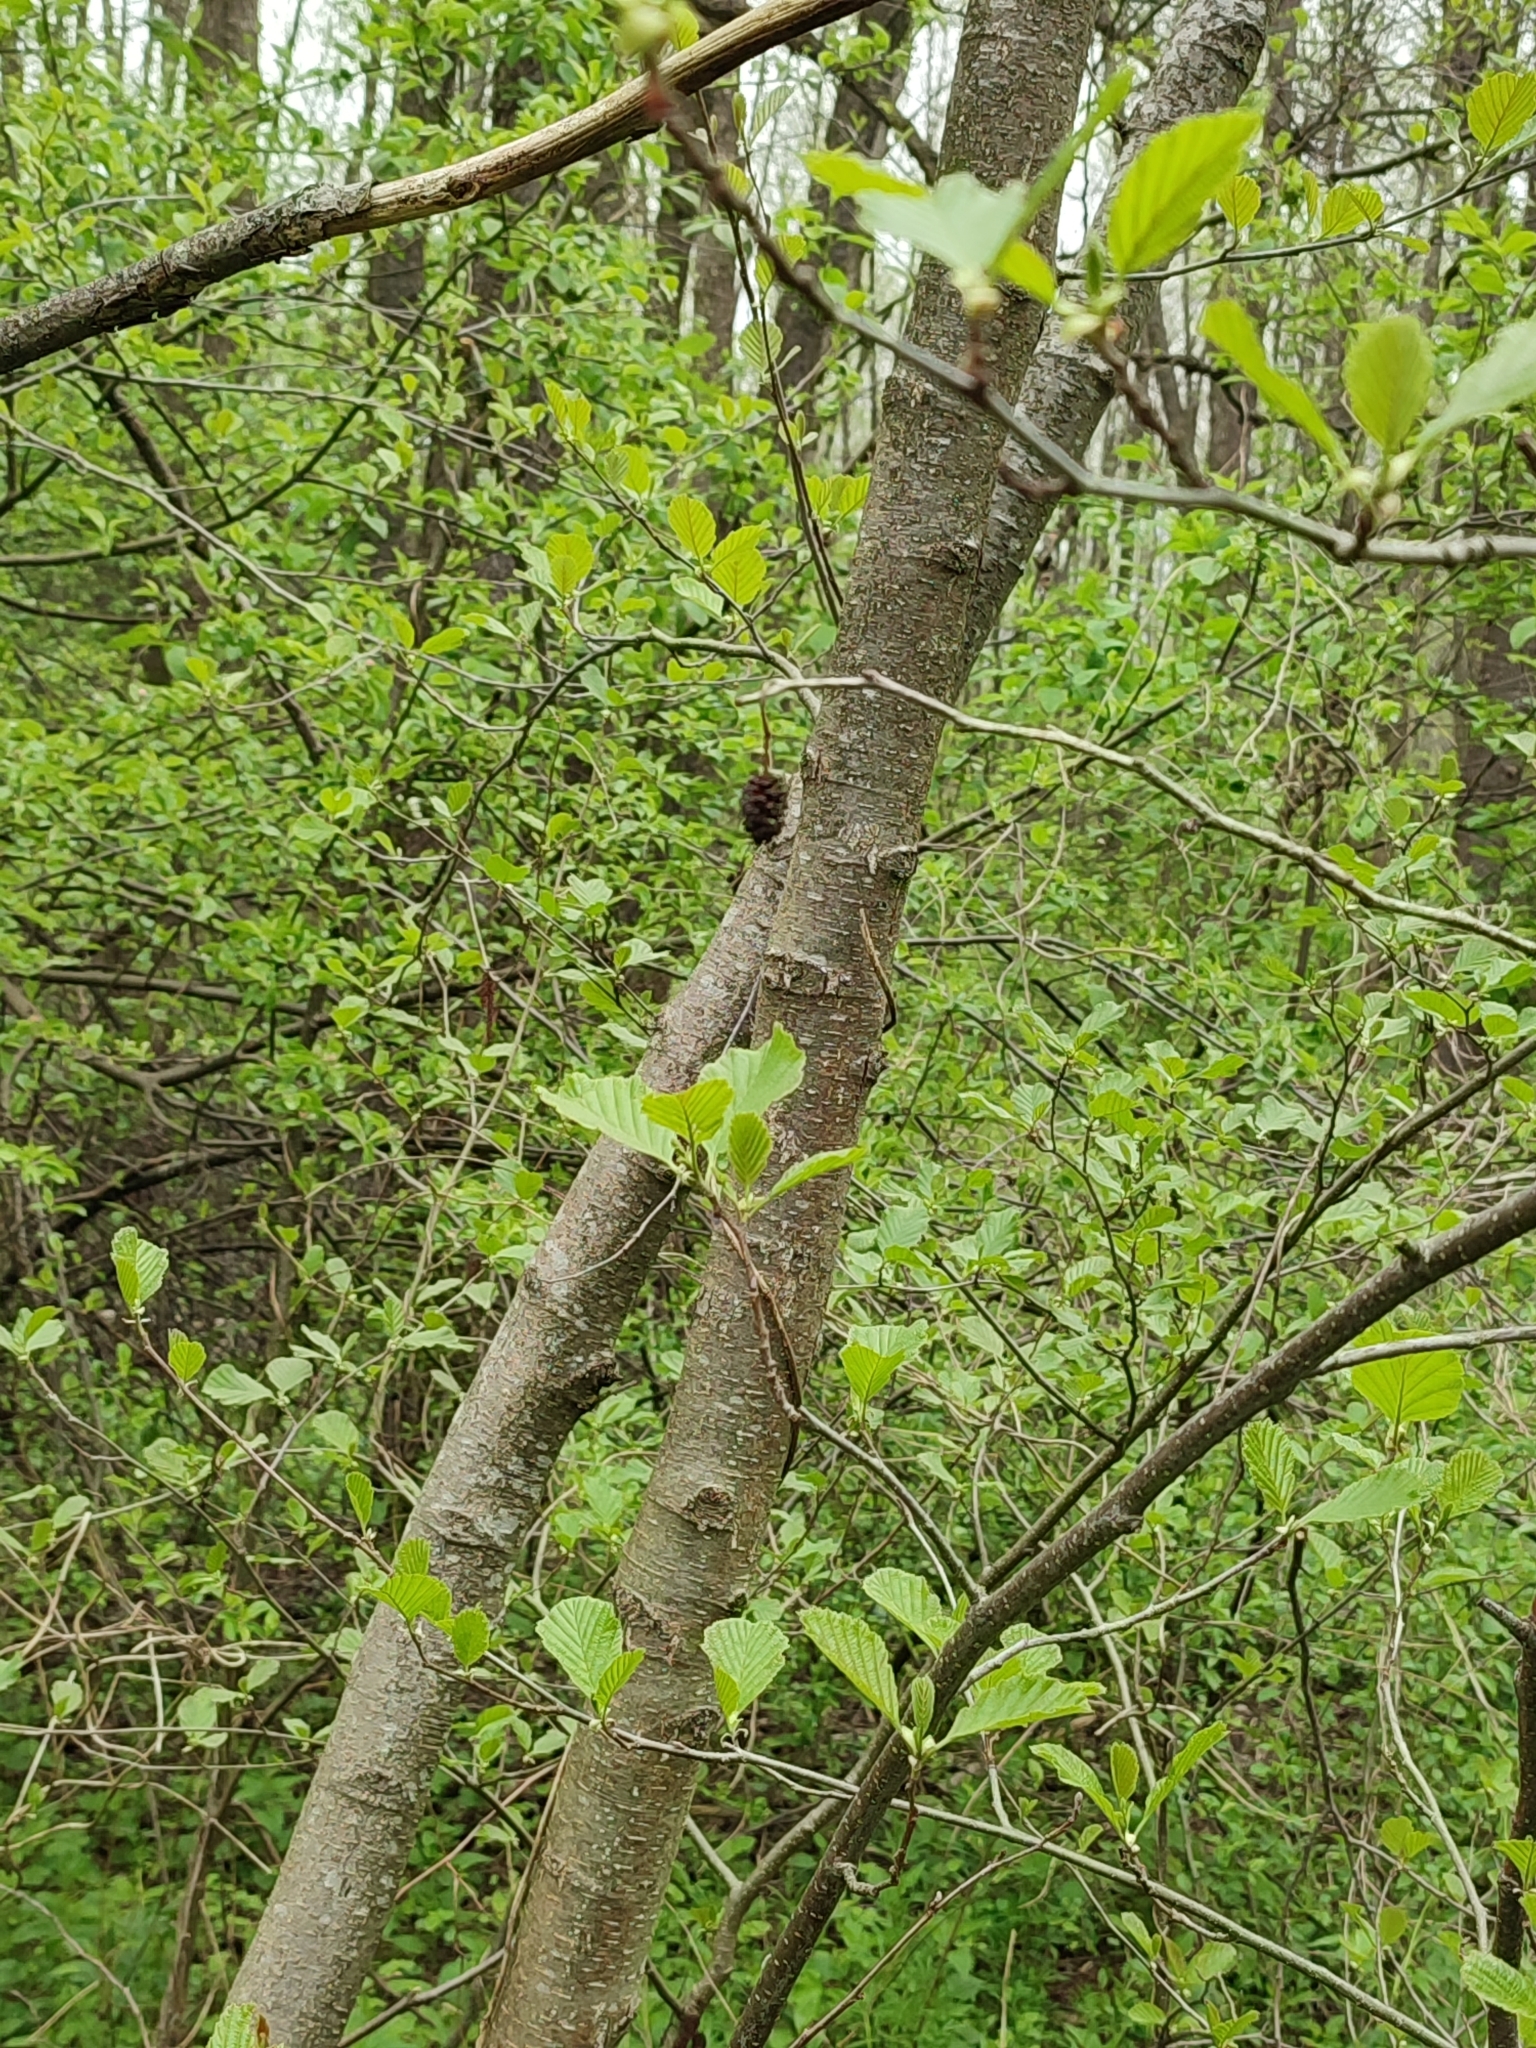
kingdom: Plantae
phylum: Tracheophyta
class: Magnoliopsida
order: Fagales
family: Betulaceae
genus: Alnus
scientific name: Alnus glutinosa
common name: Black alder
